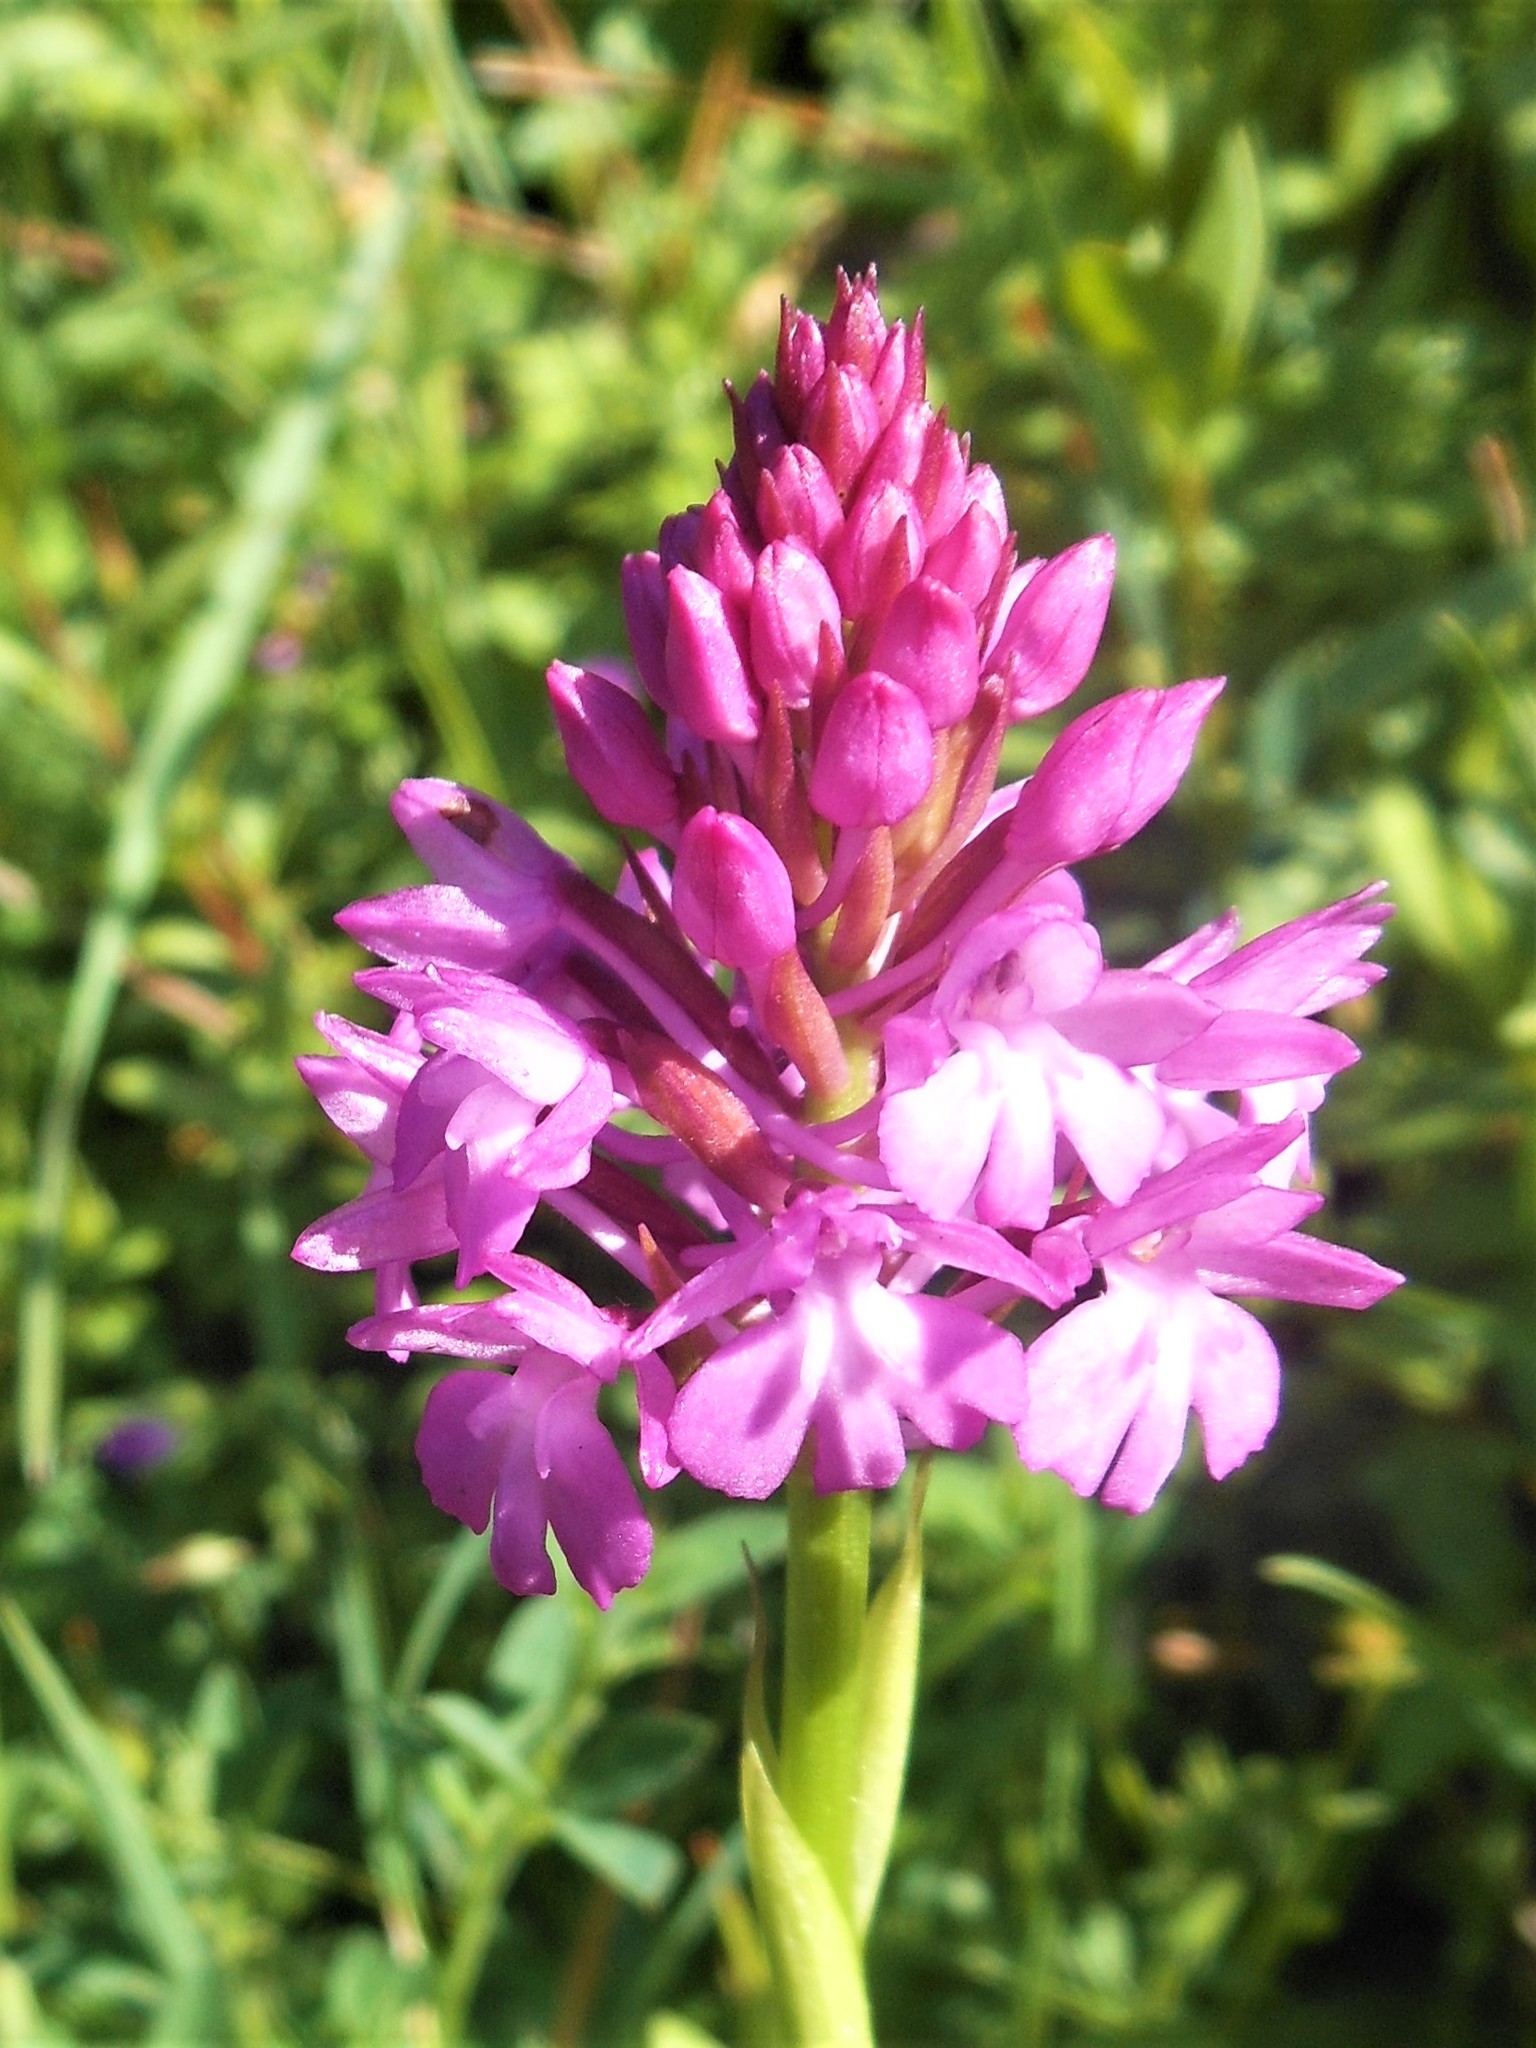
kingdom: Plantae
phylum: Tracheophyta
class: Liliopsida
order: Asparagales
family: Orchidaceae
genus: Anacamptis
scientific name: Anacamptis pyramidalis
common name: Pyramidal orchid
